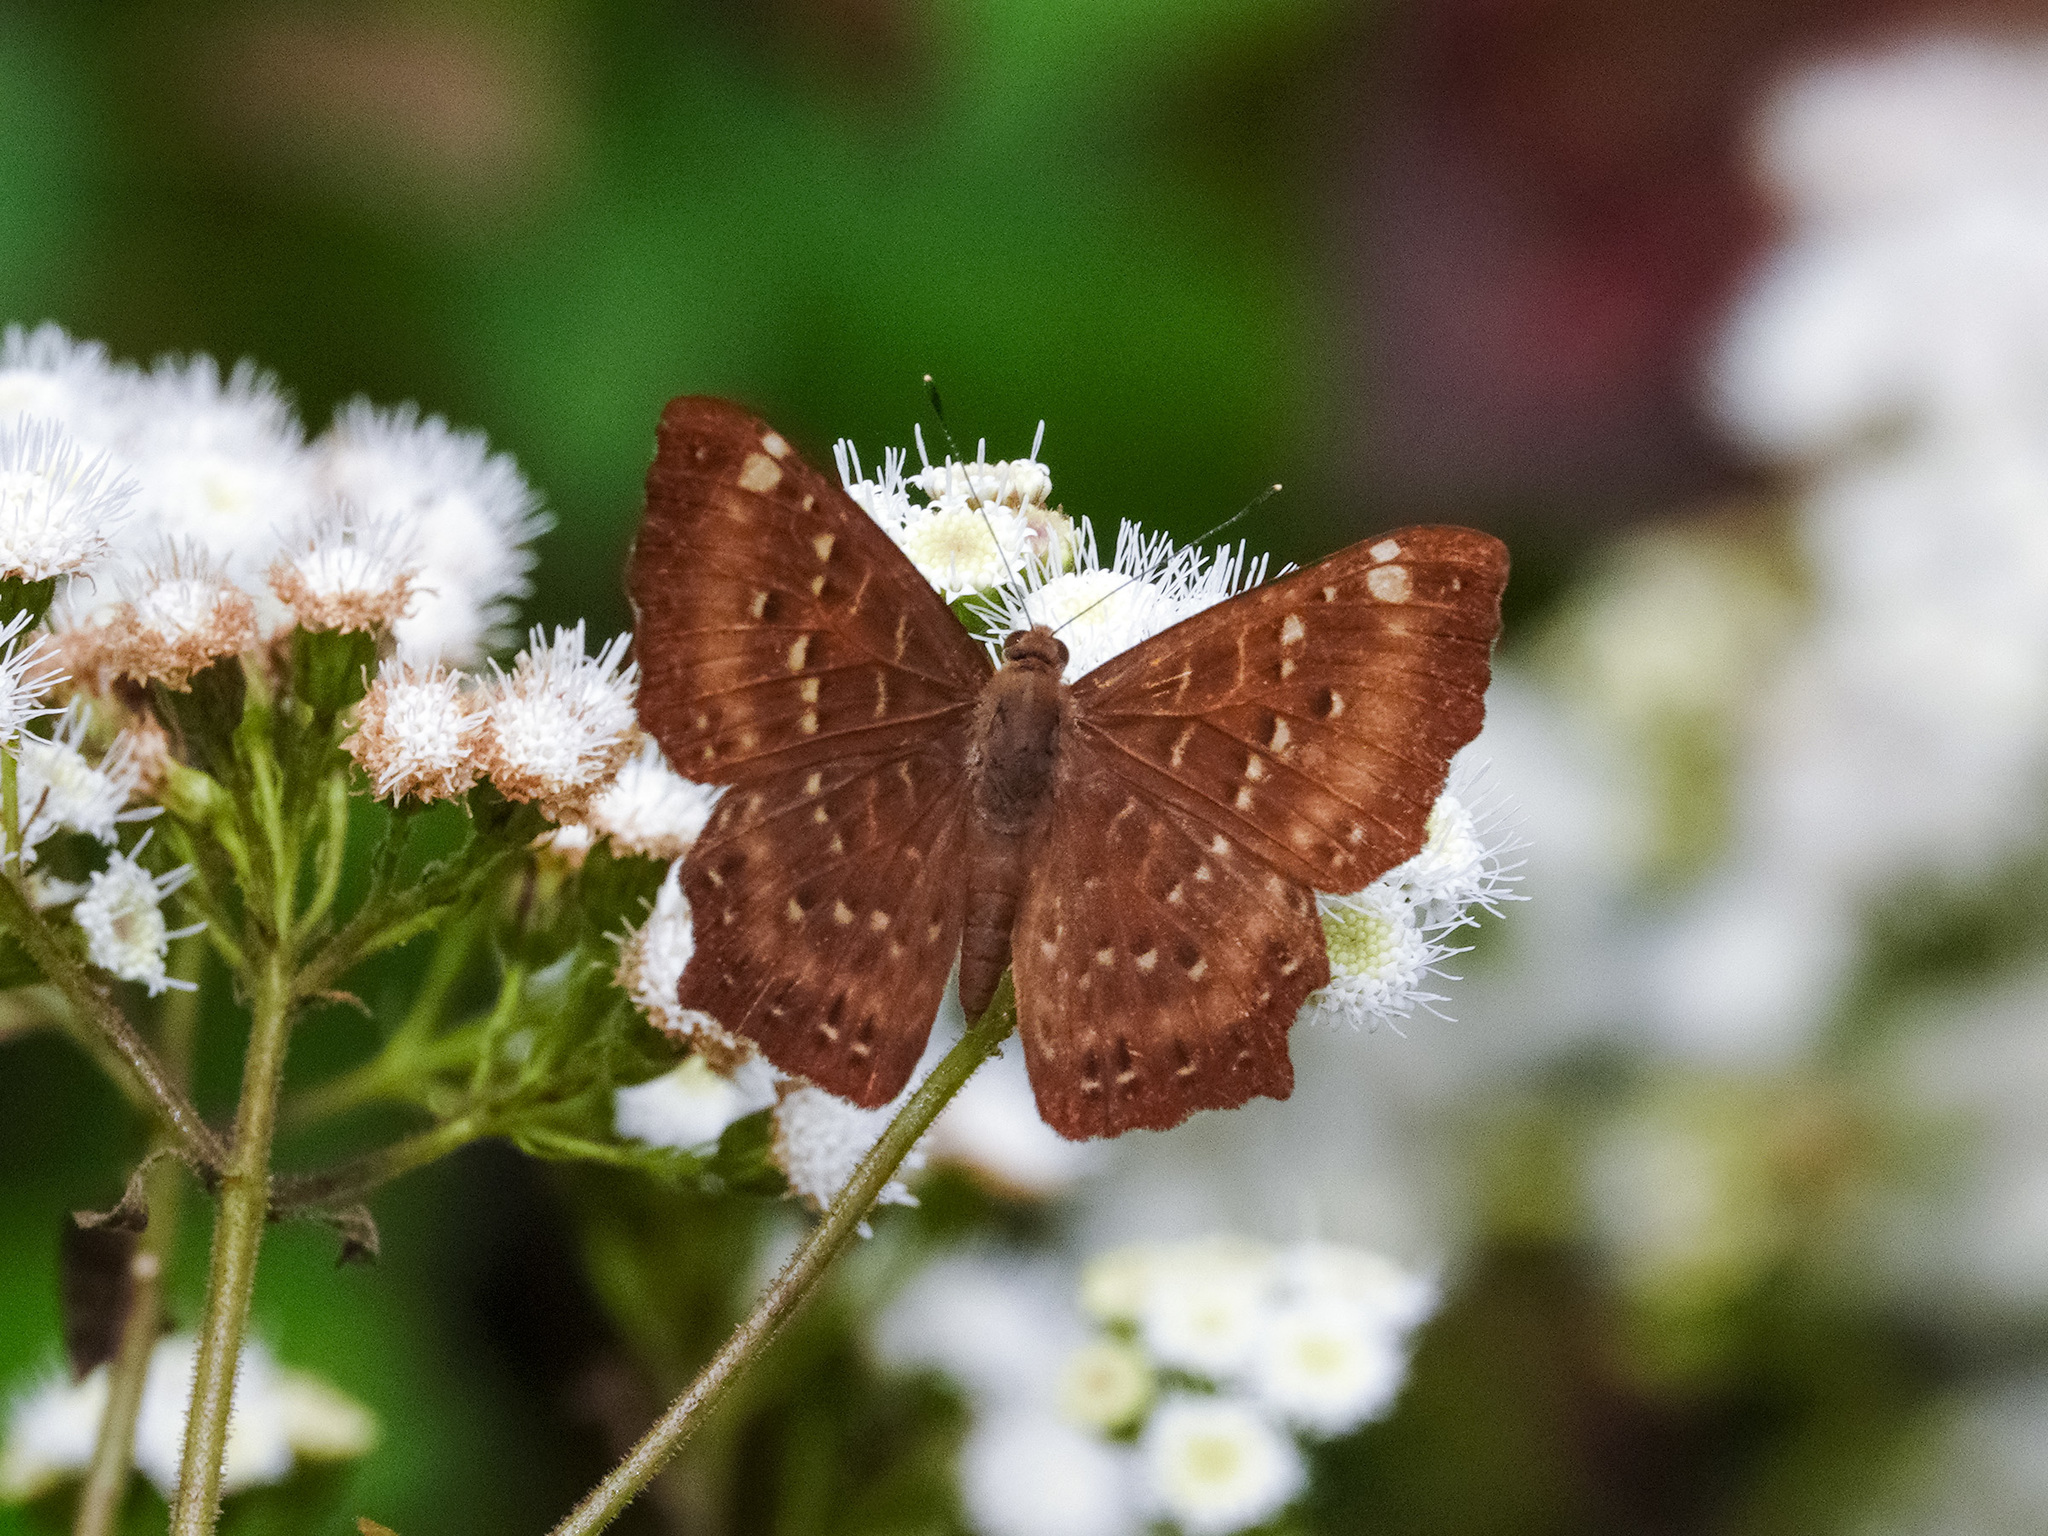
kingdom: Animalia
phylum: Arthropoda
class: Insecta
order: Lepidoptera
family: Riodinidae
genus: Zemeros
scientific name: Zemeros flegyas
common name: Punchinello
